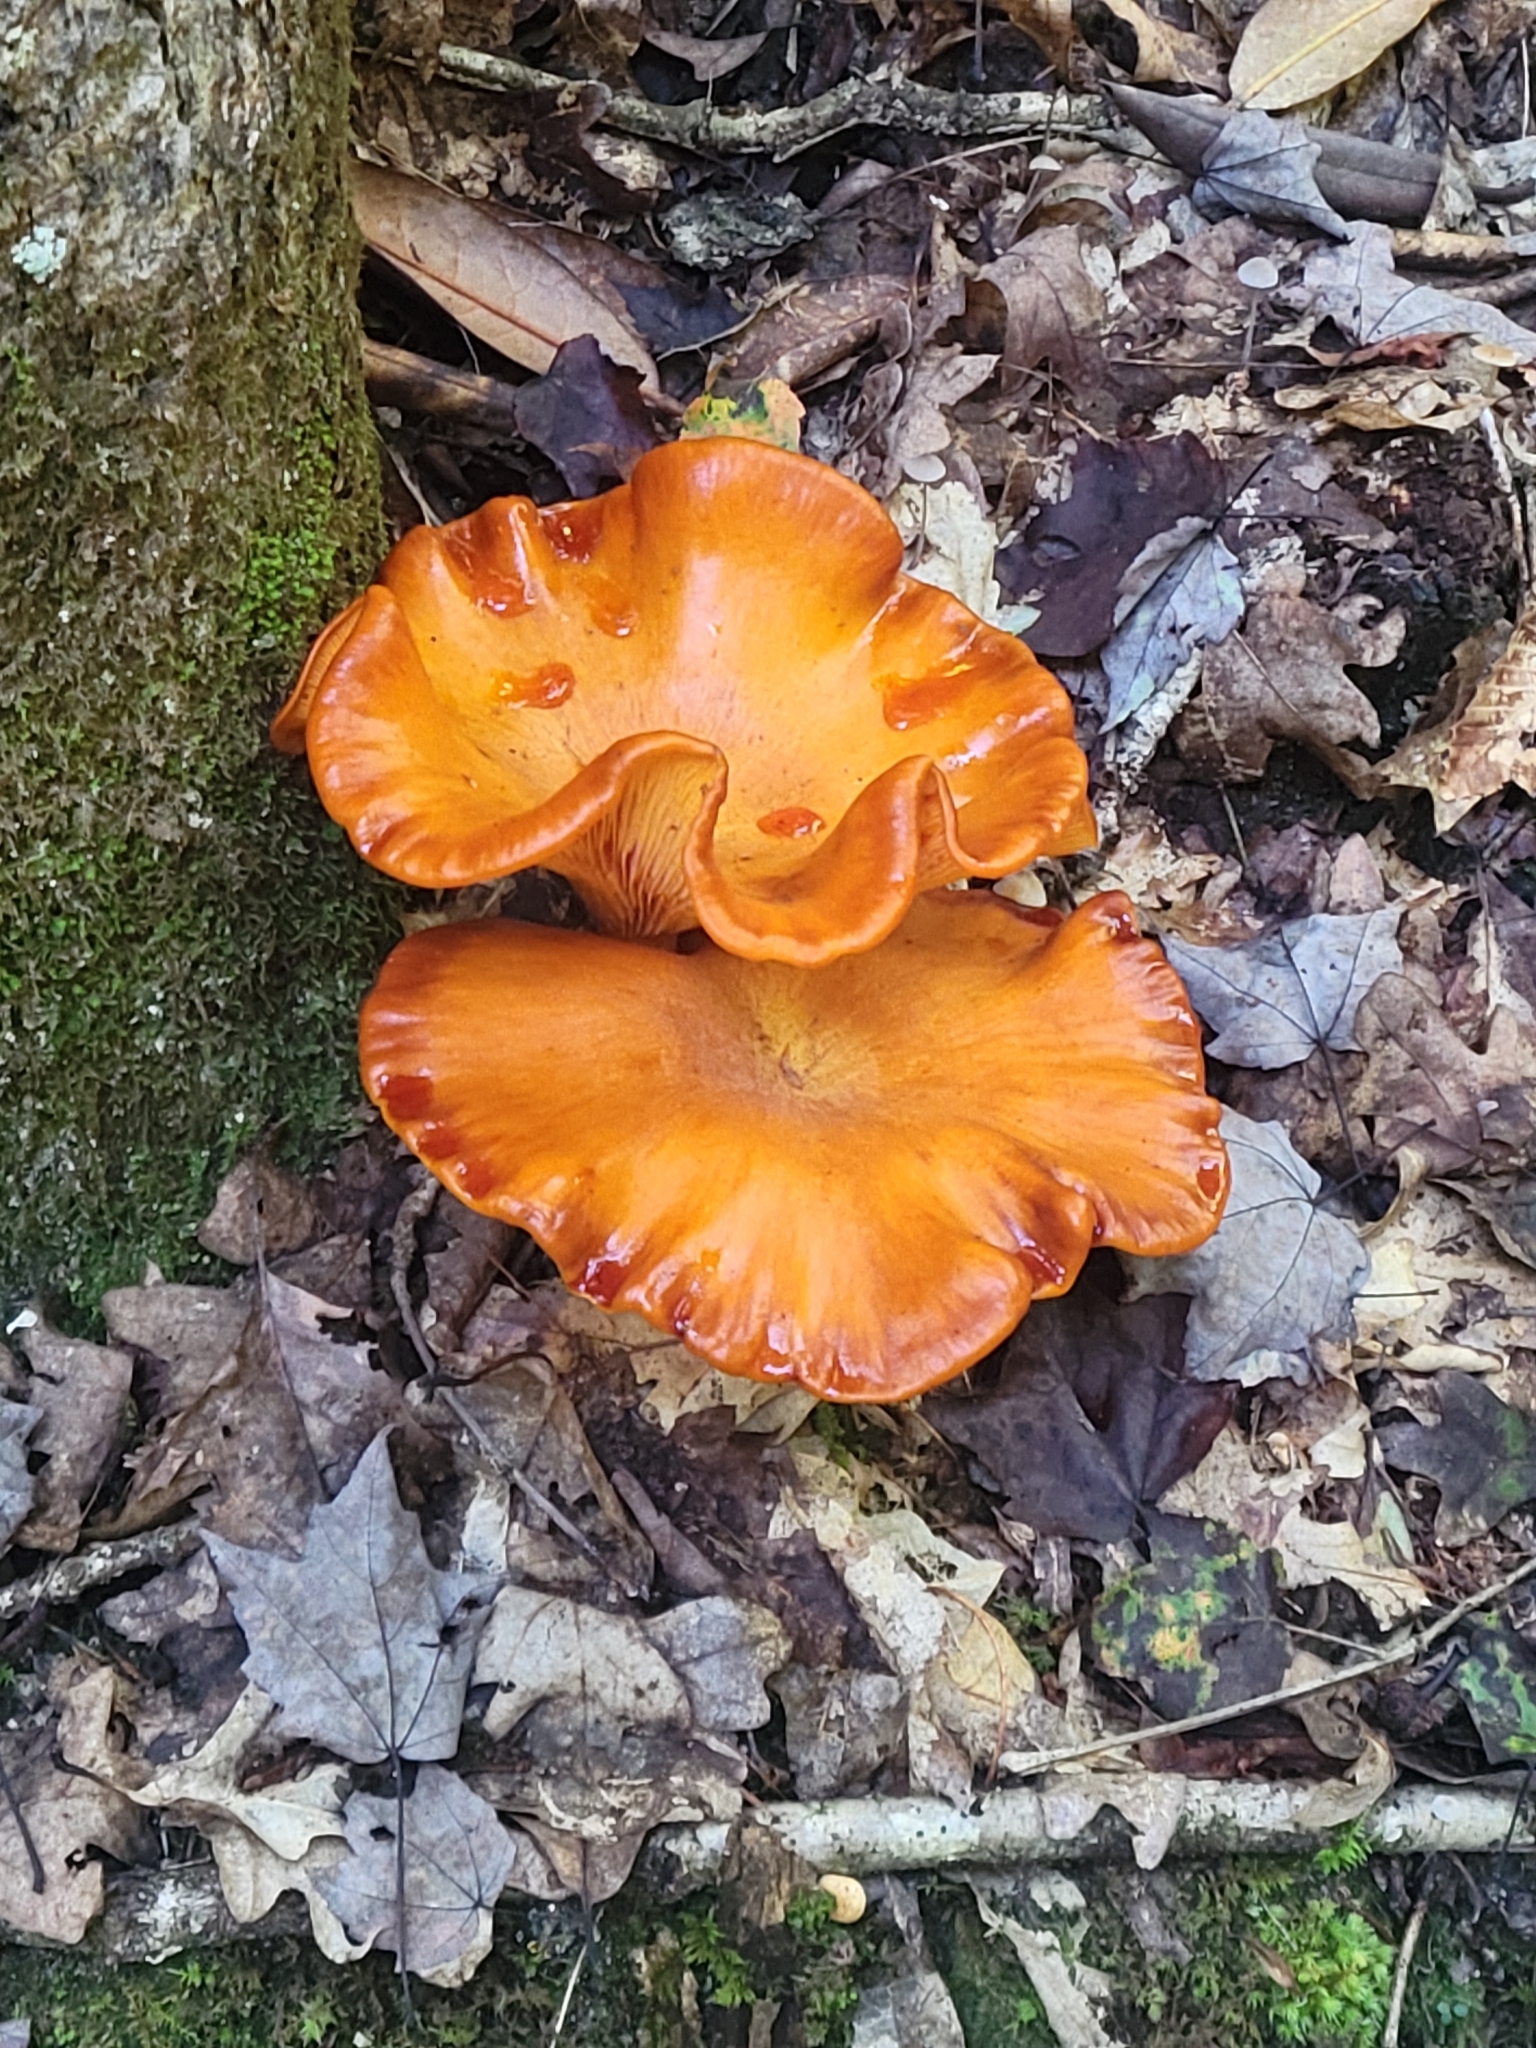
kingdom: Fungi
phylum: Basidiomycota
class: Agaricomycetes
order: Agaricales
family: Omphalotaceae
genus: Omphalotus
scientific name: Omphalotus illudens
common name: Jack o lantern
